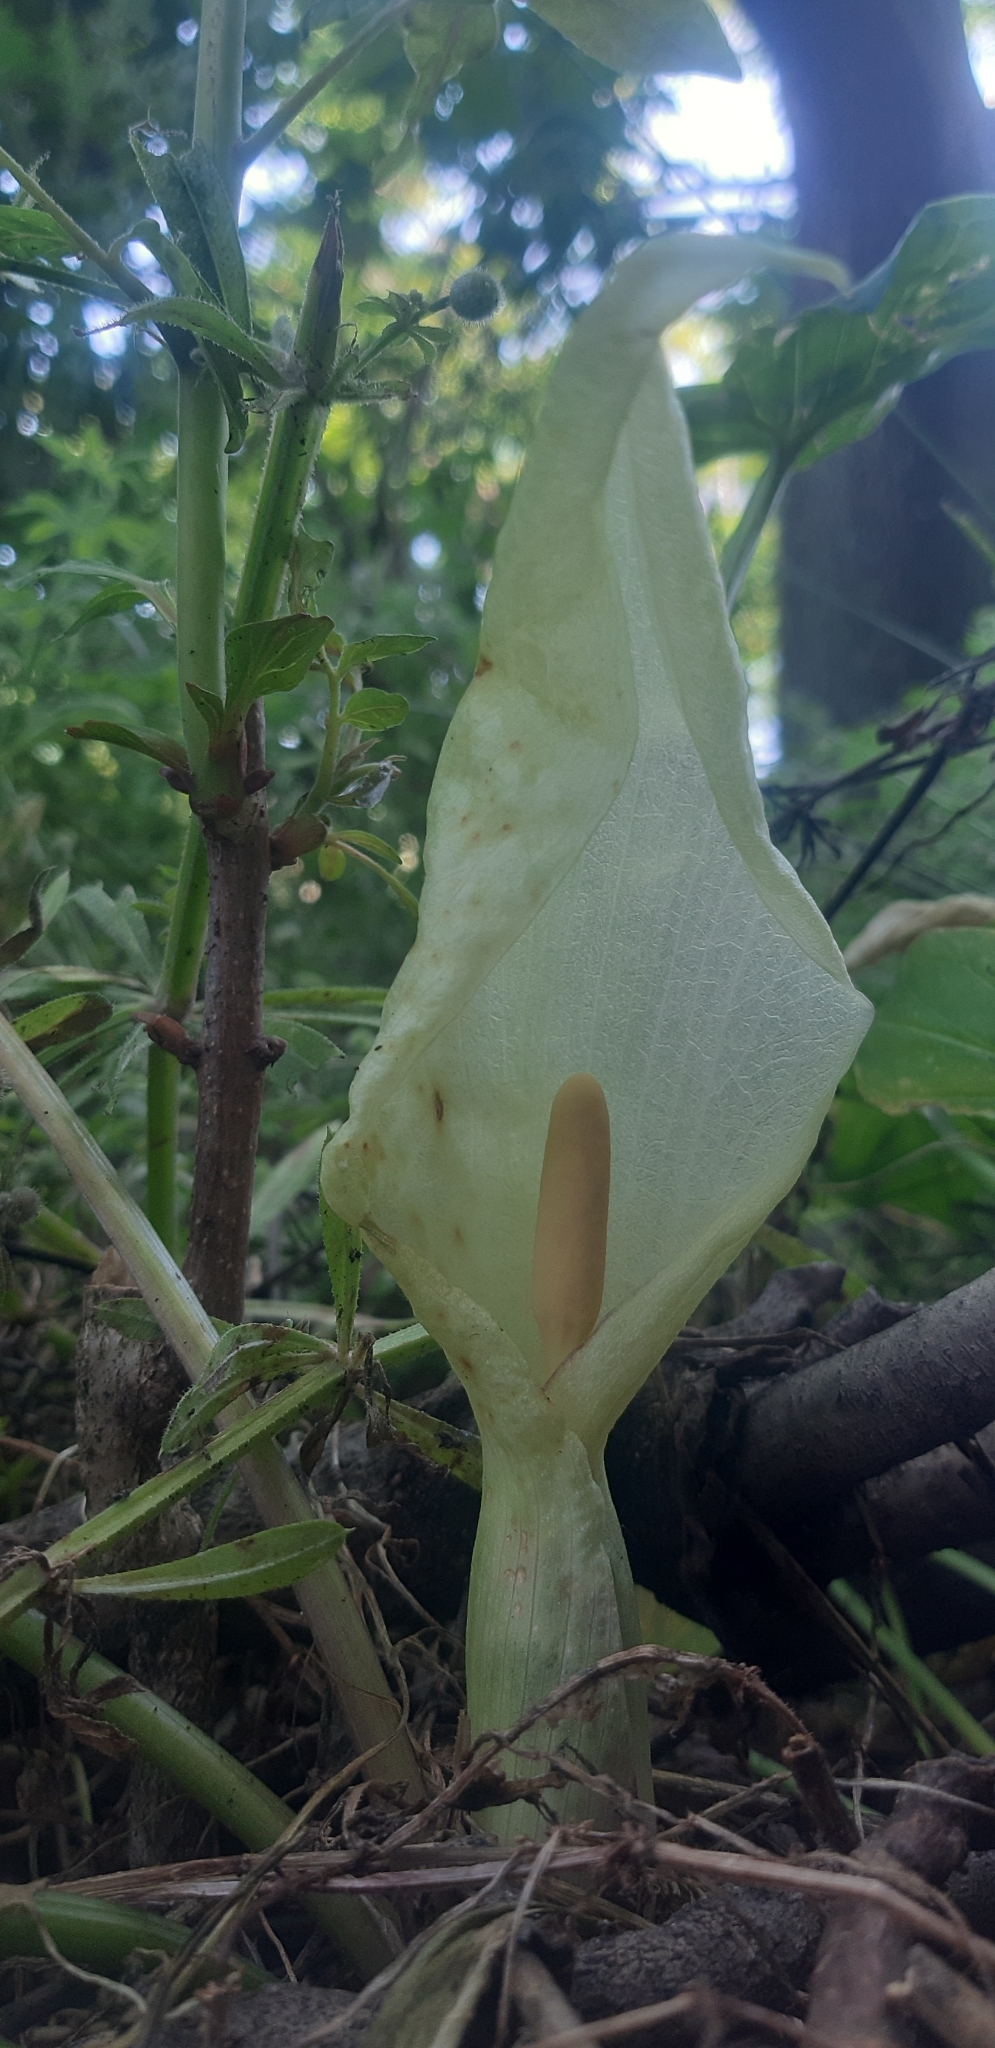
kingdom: Plantae
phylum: Tracheophyta
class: Liliopsida
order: Alismatales
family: Araceae
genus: Arum
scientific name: Arum italicum
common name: Italian lords-and-ladies
